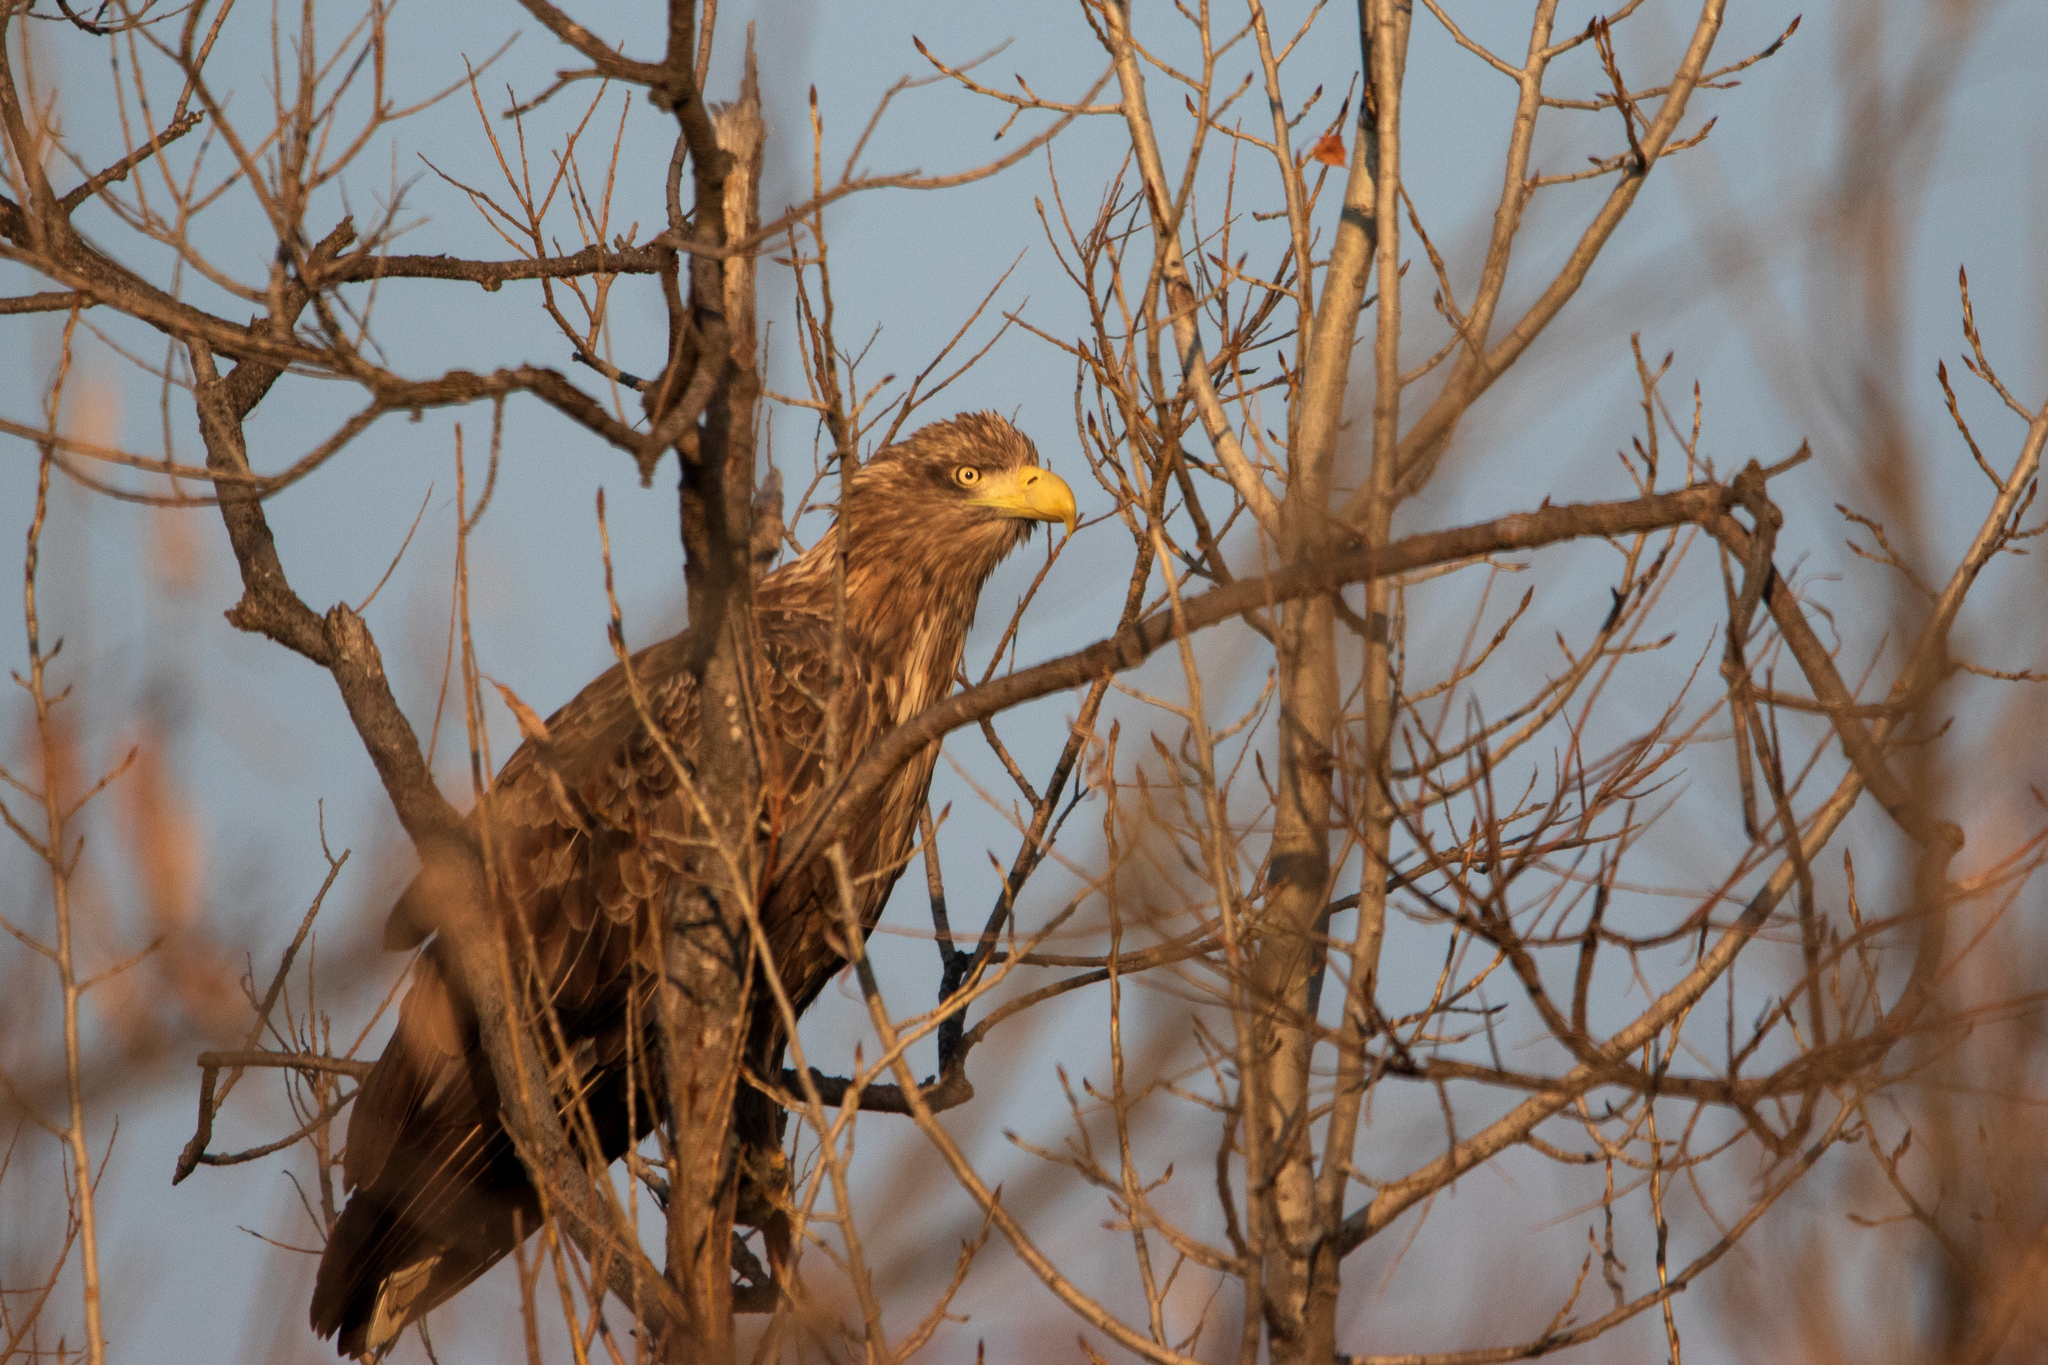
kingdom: Animalia
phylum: Chordata
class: Aves
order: Accipitriformes
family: Accipitridae
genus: Haliaeetus
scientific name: Haliaeetus albicilla
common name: White-tailed eagle
